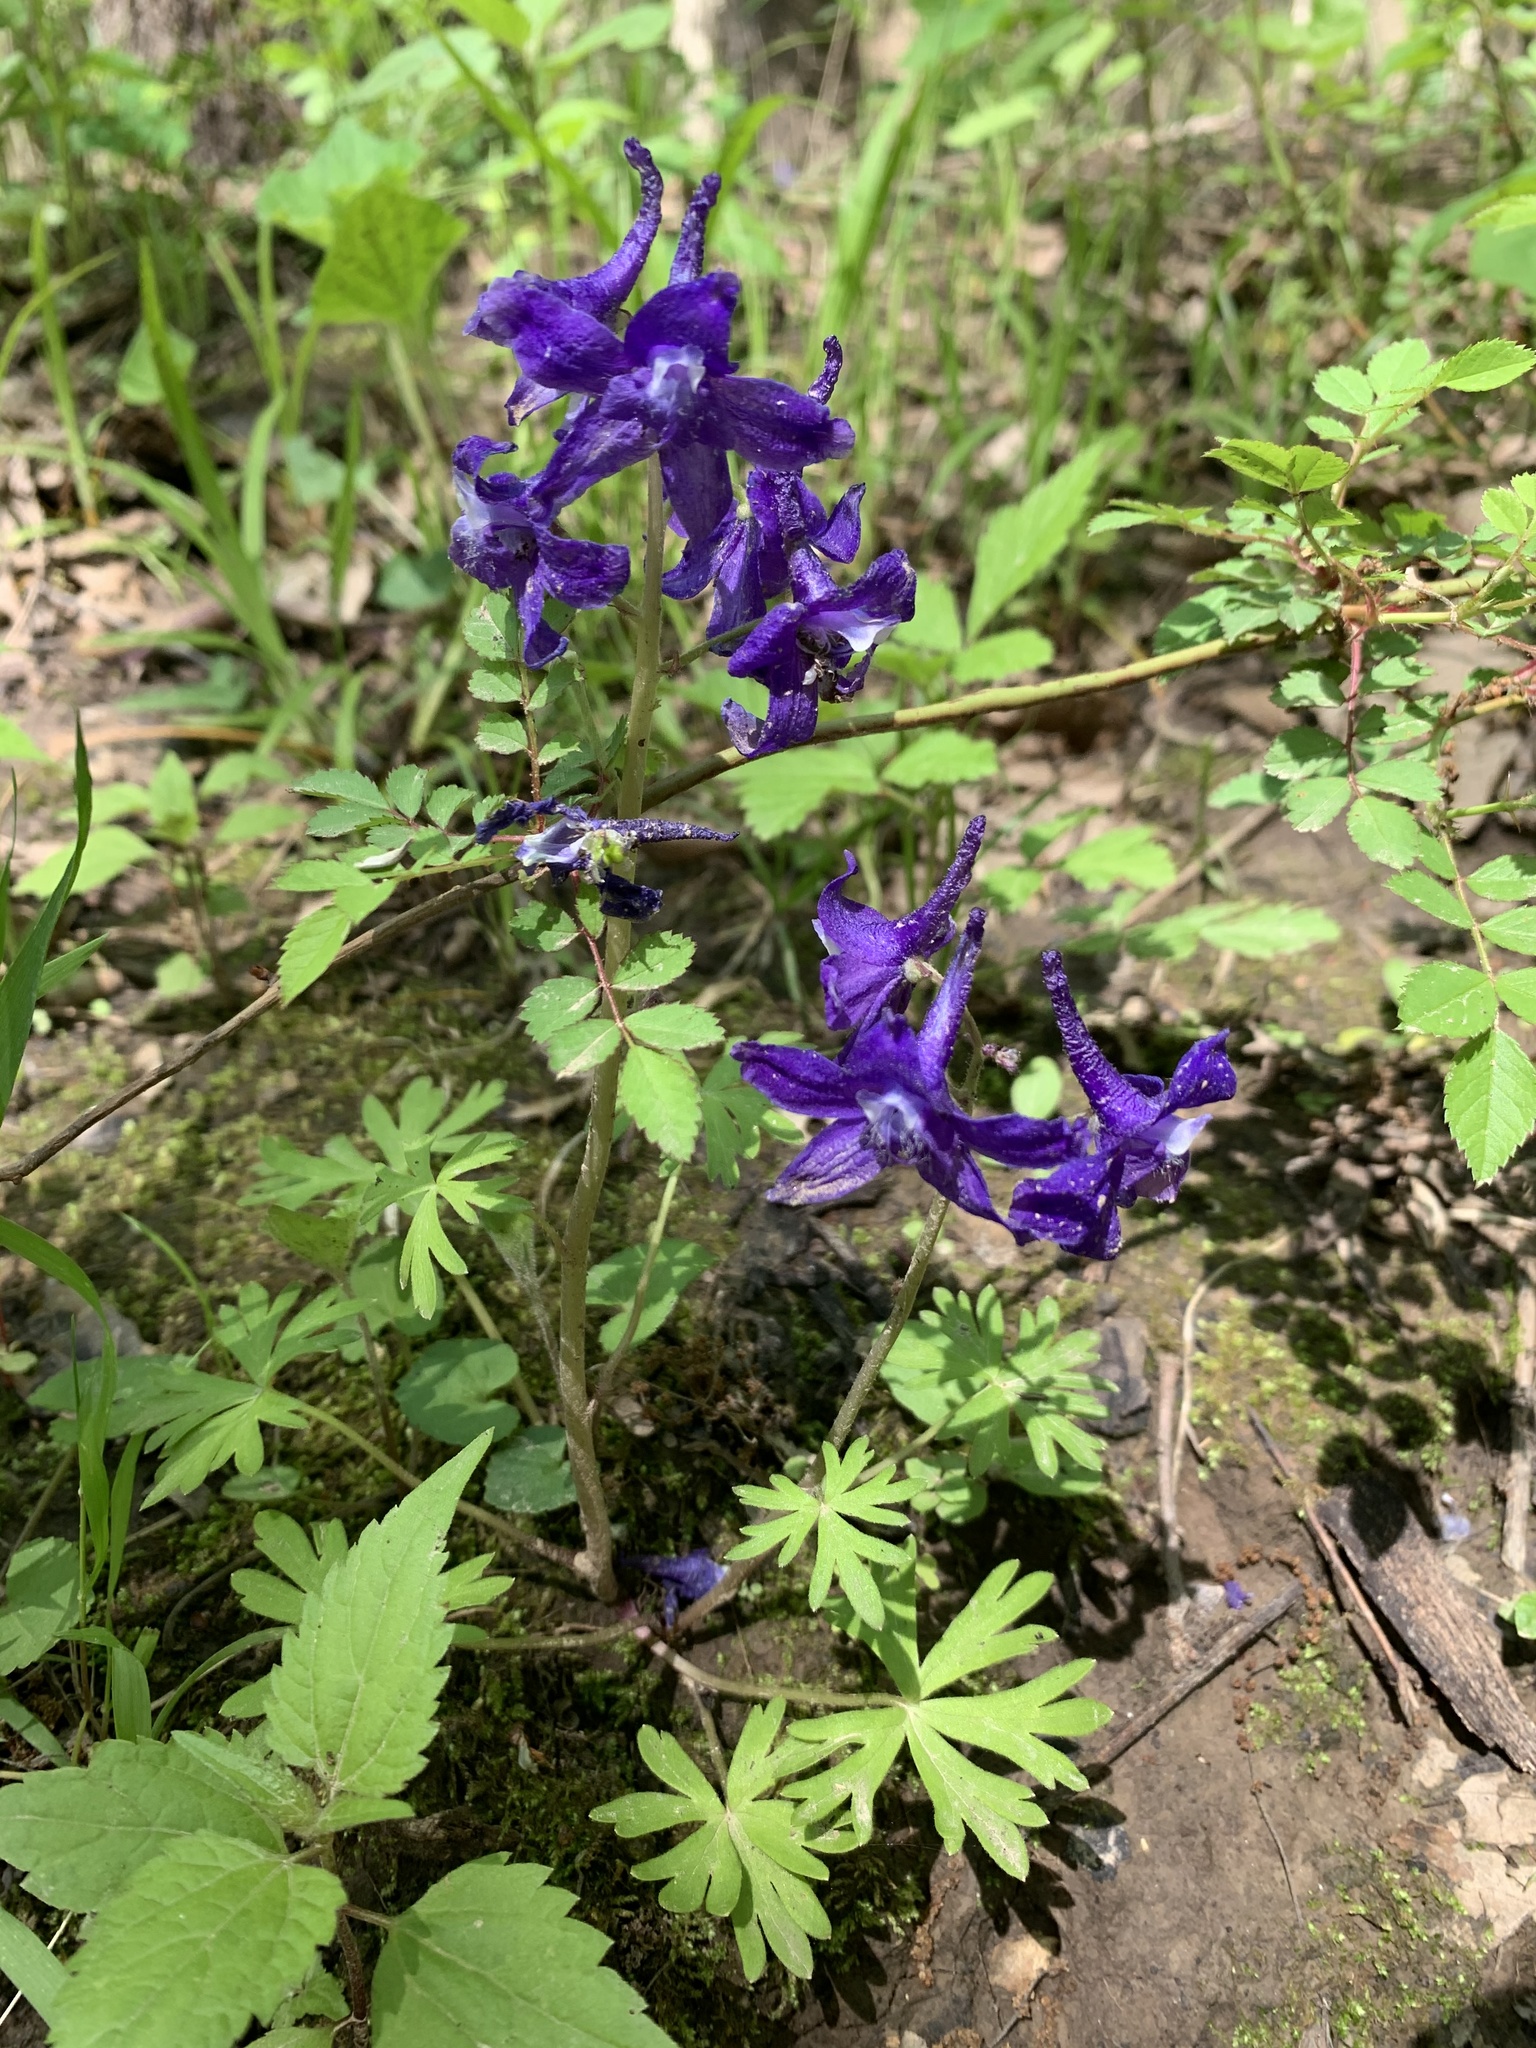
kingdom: Plantae
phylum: Tracheophyta
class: Magnoliopsida
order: Ranunculales
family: Ranunculaceae
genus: Delphinium
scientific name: Delphinium tricorne
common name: Dwarf larkspur
